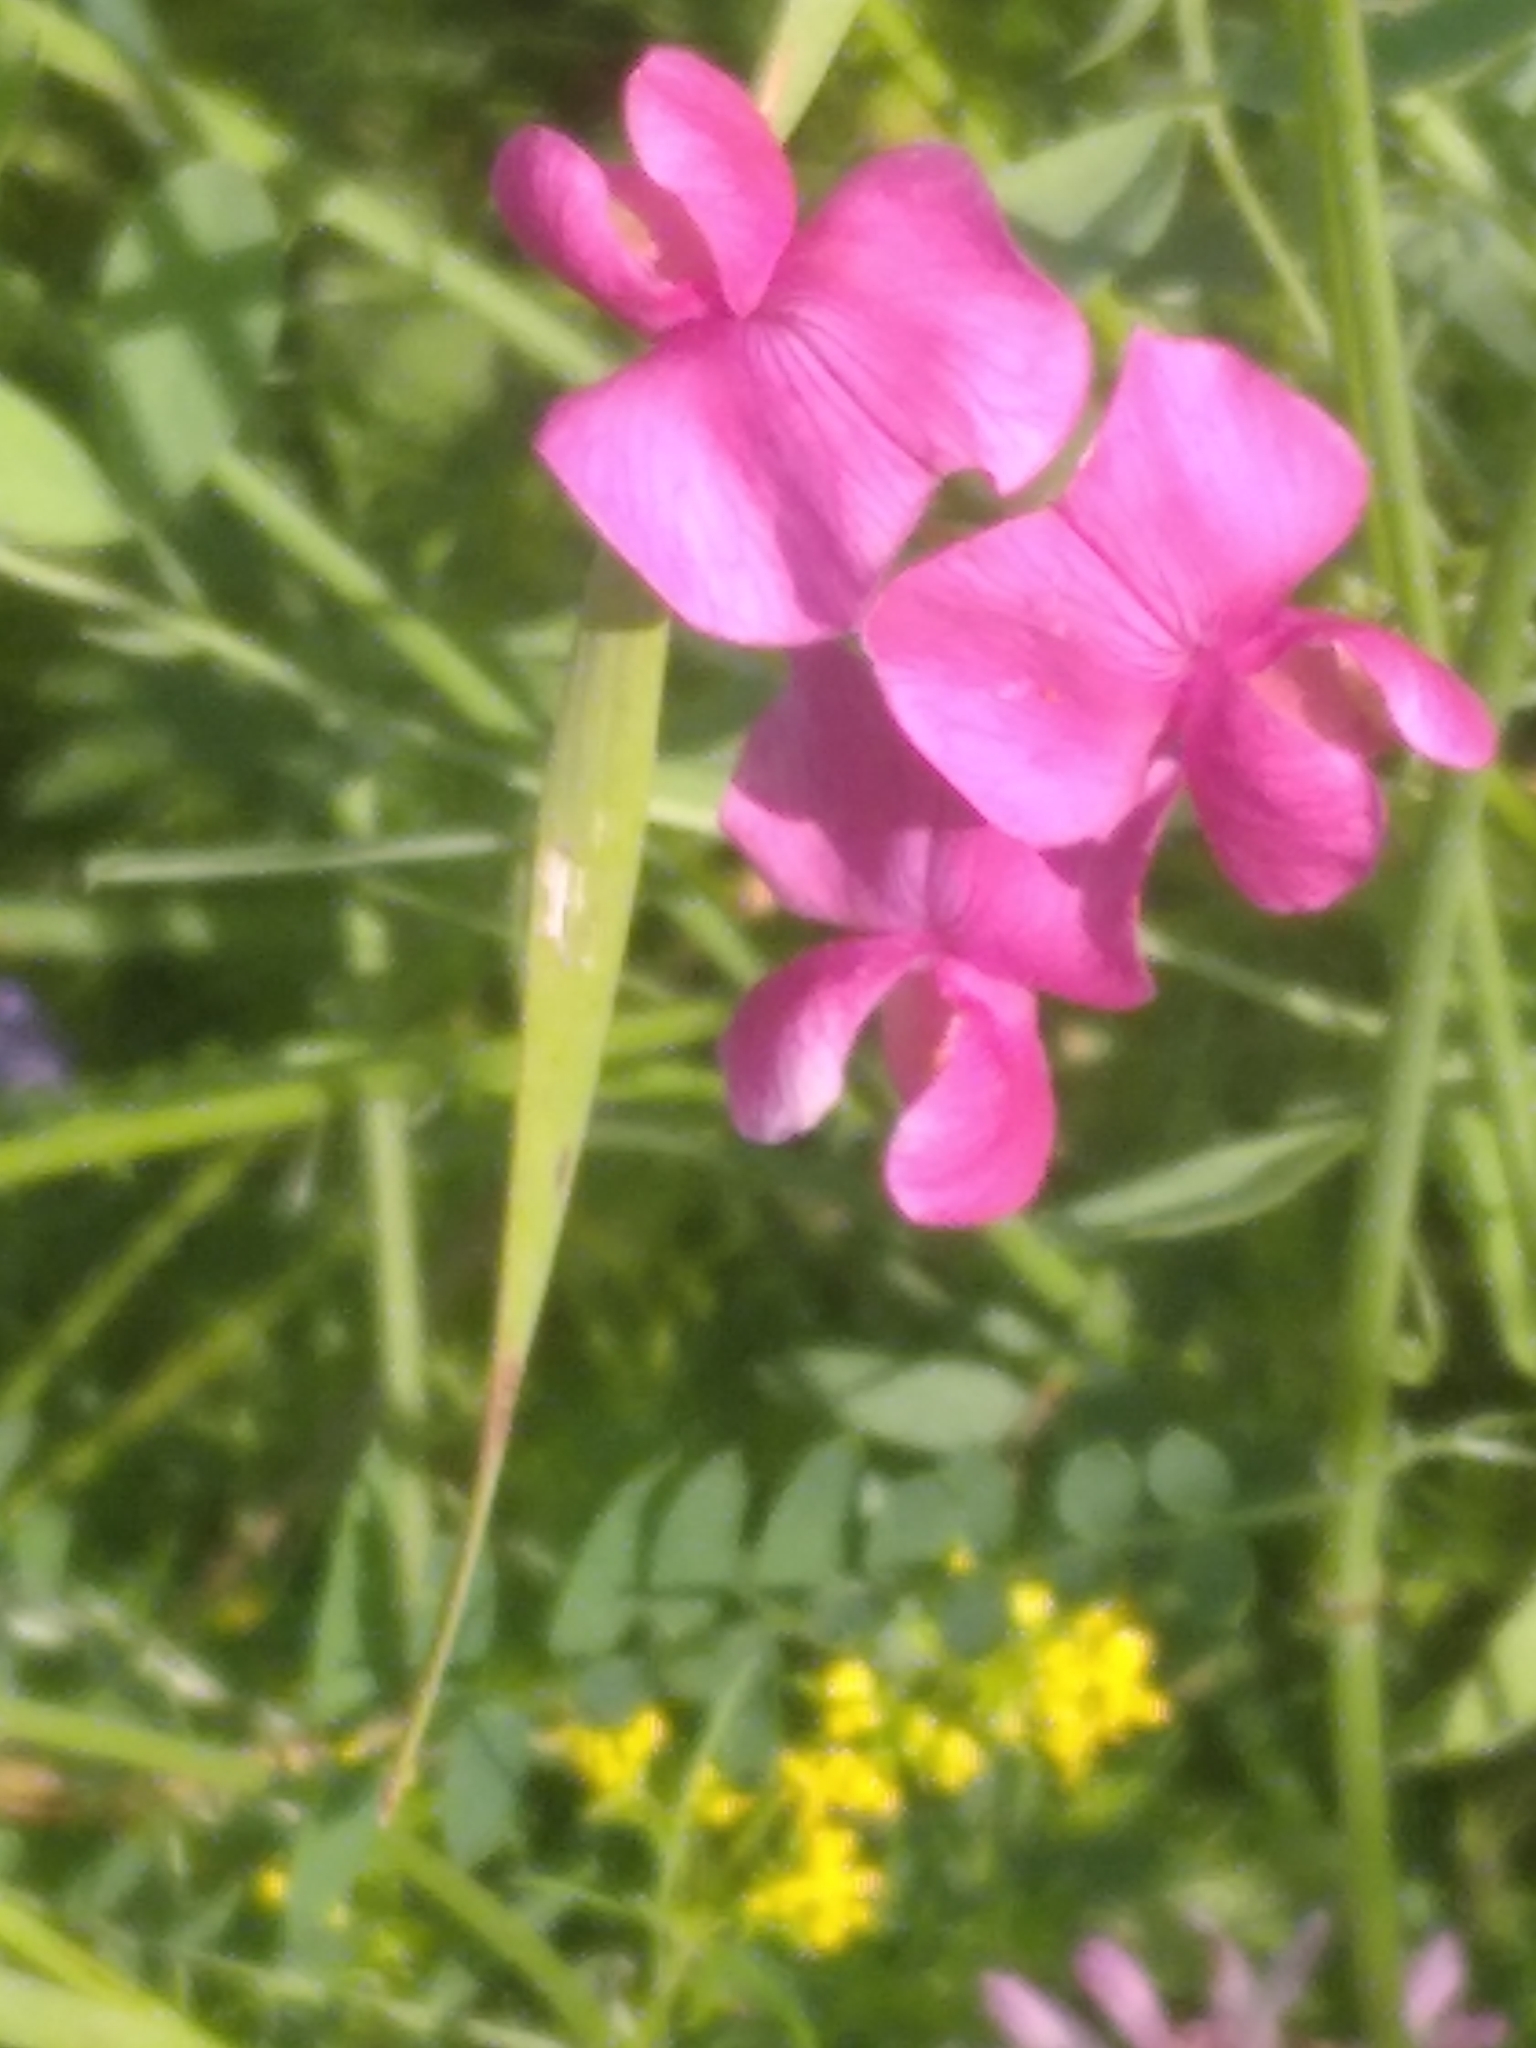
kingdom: Plantae
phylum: Tracheophyta
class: Magnoliopsida
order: Fabales
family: Fabaceae
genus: Lathyrus
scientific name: Lathyrus tuberosus
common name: Tuberous pea
